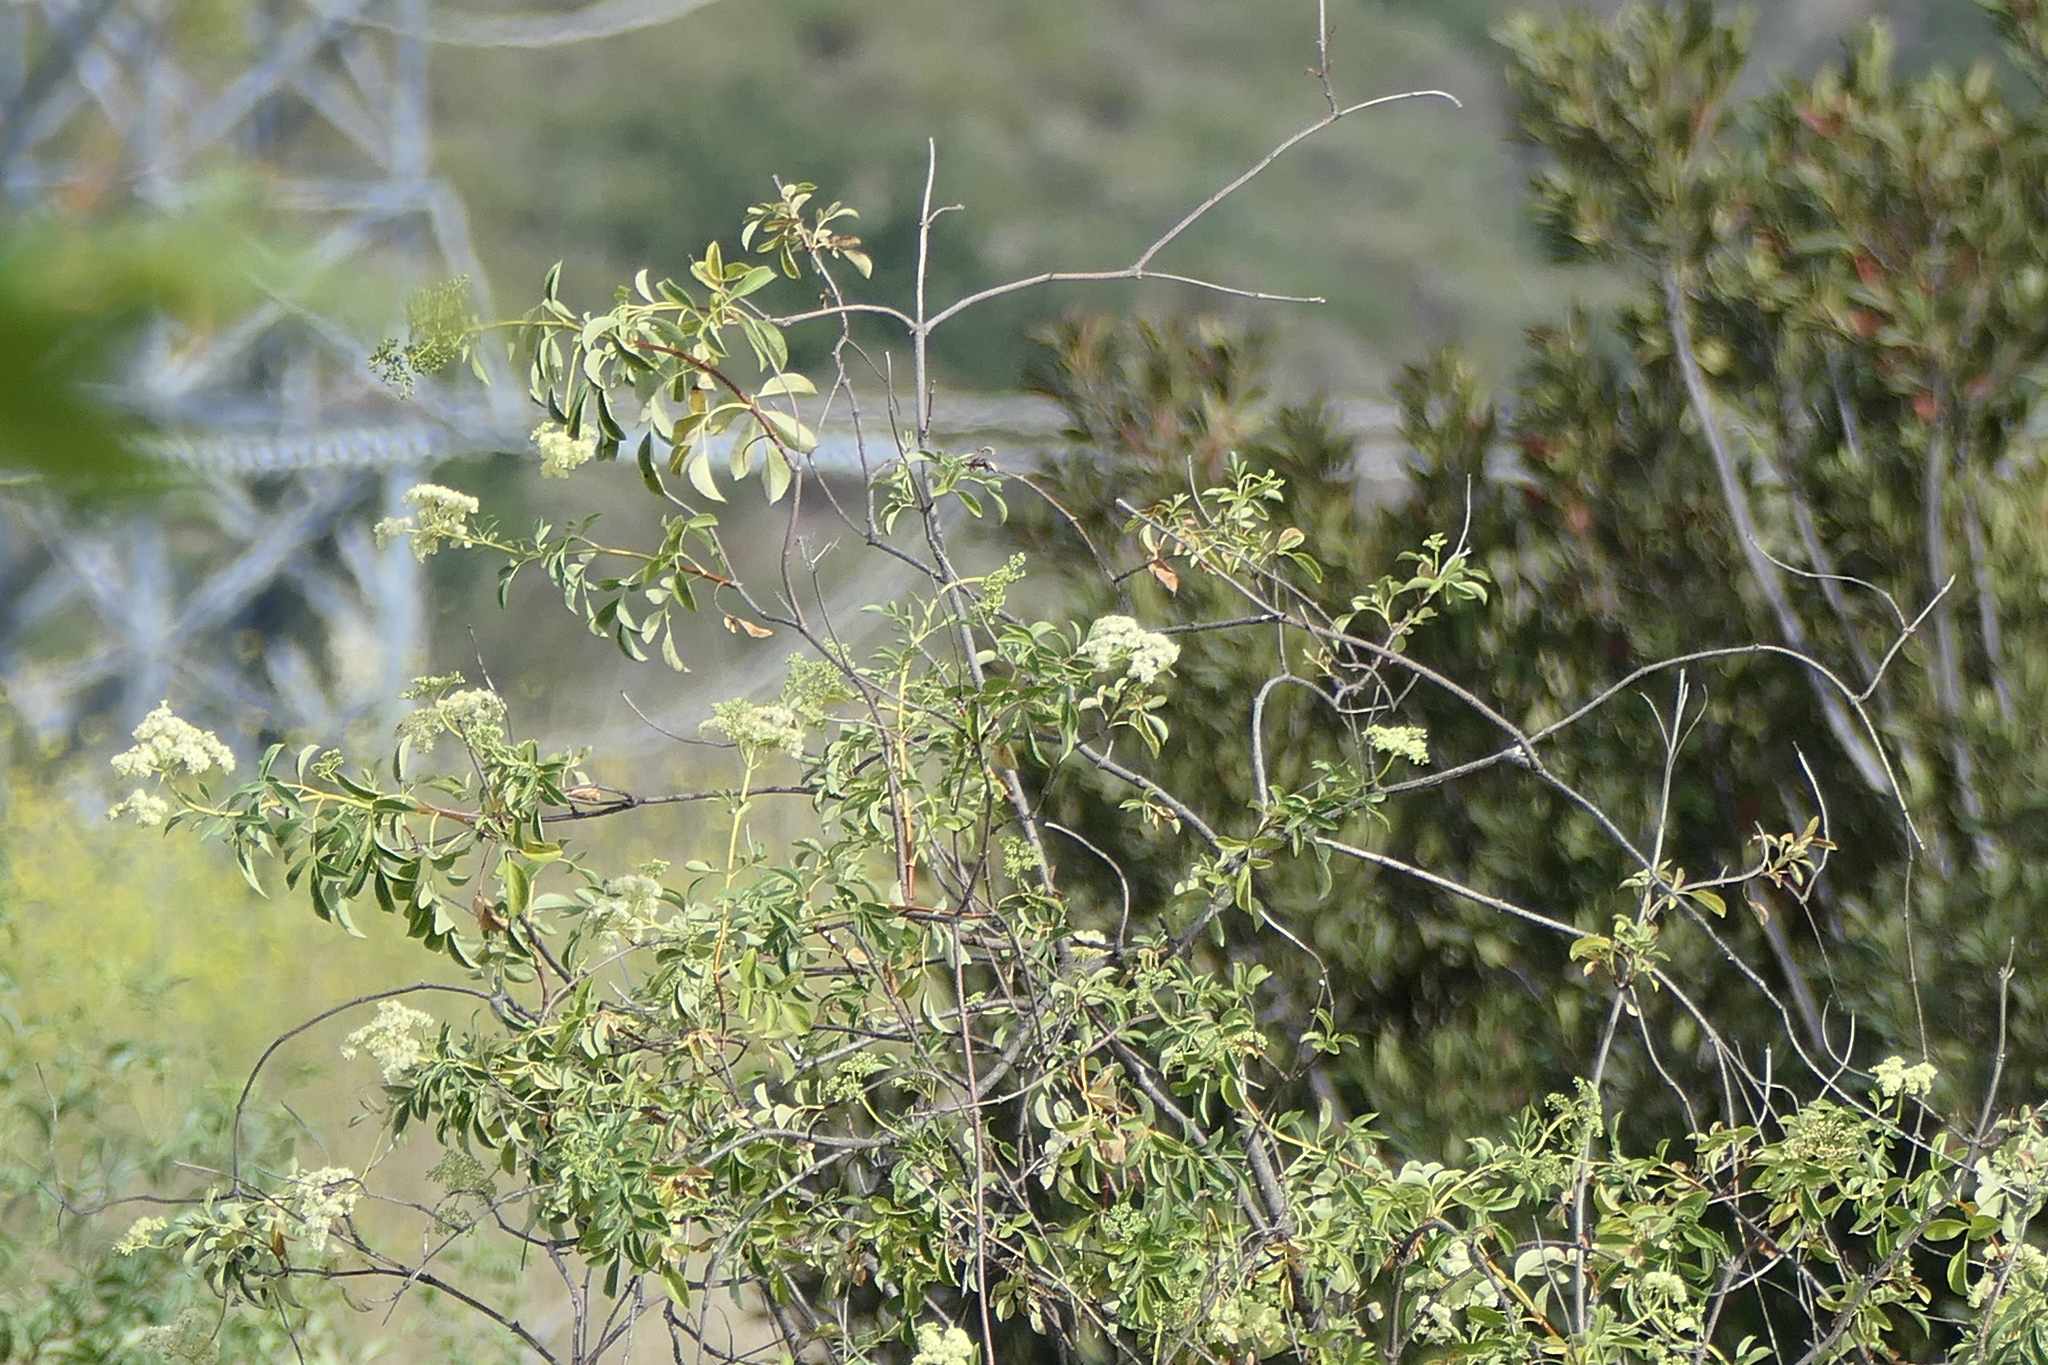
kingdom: Plantae
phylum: Tracheophyta
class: Magnoliopsida
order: Dipsacales
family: Viburnaceae
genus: Sambucus
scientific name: Sambucus cerulea
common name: Blue elder
